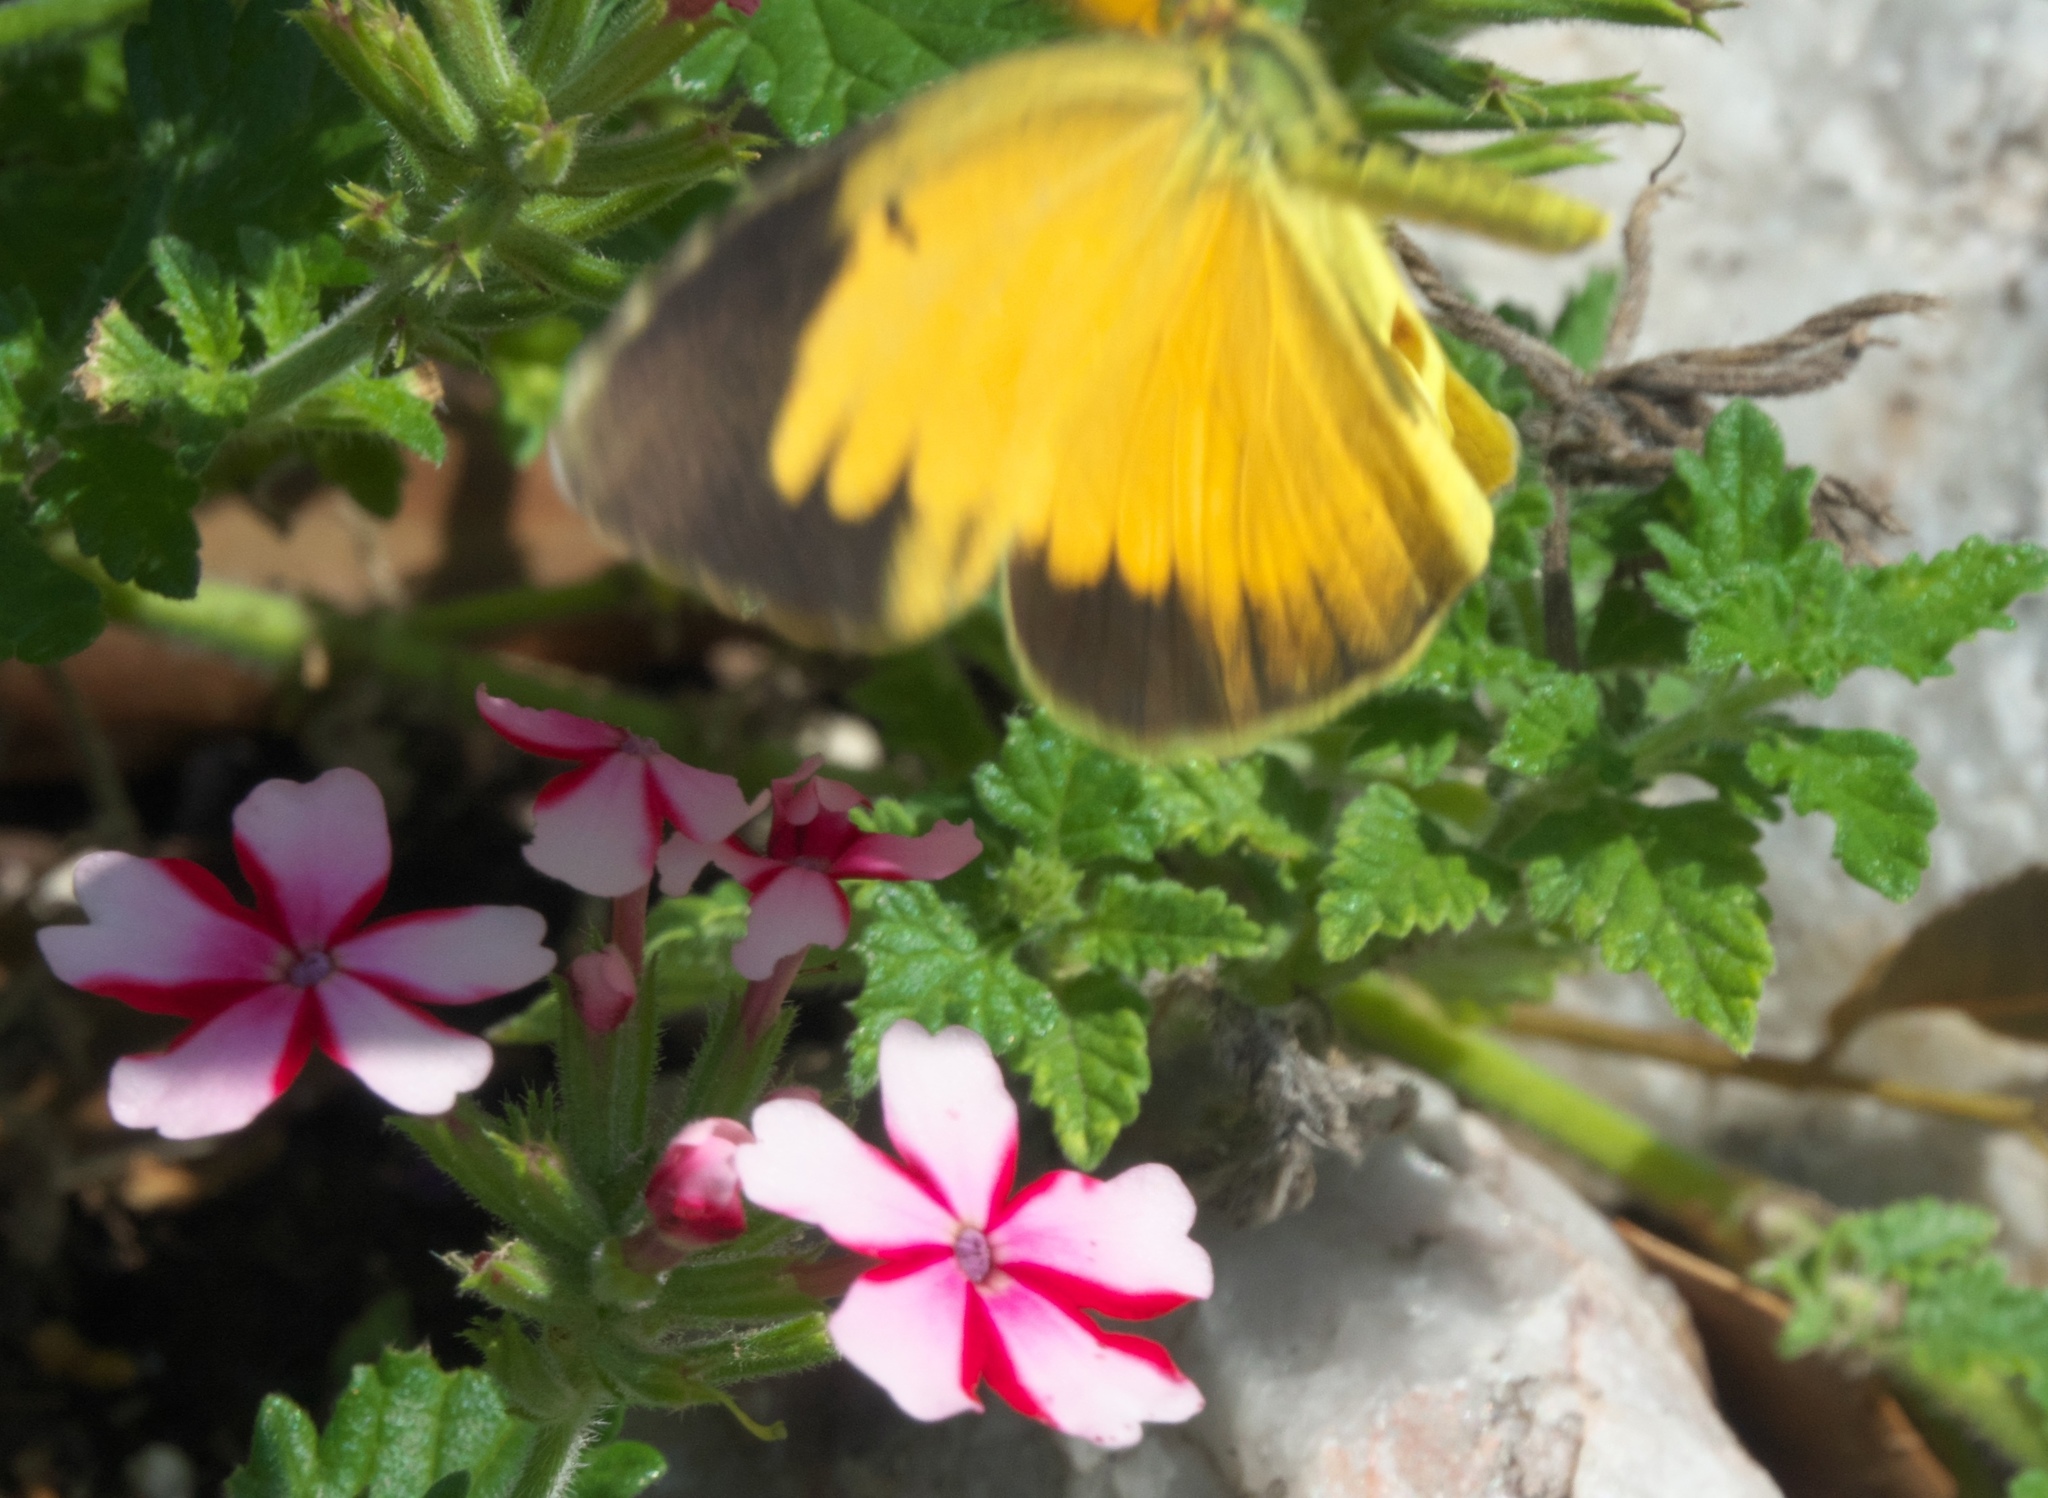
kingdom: Animalia
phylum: Arthropoda
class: Insecta
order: Lepidoptera
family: Pieridae
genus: Abaeis
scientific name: Abaeis nicippe
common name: Sleepy orange
